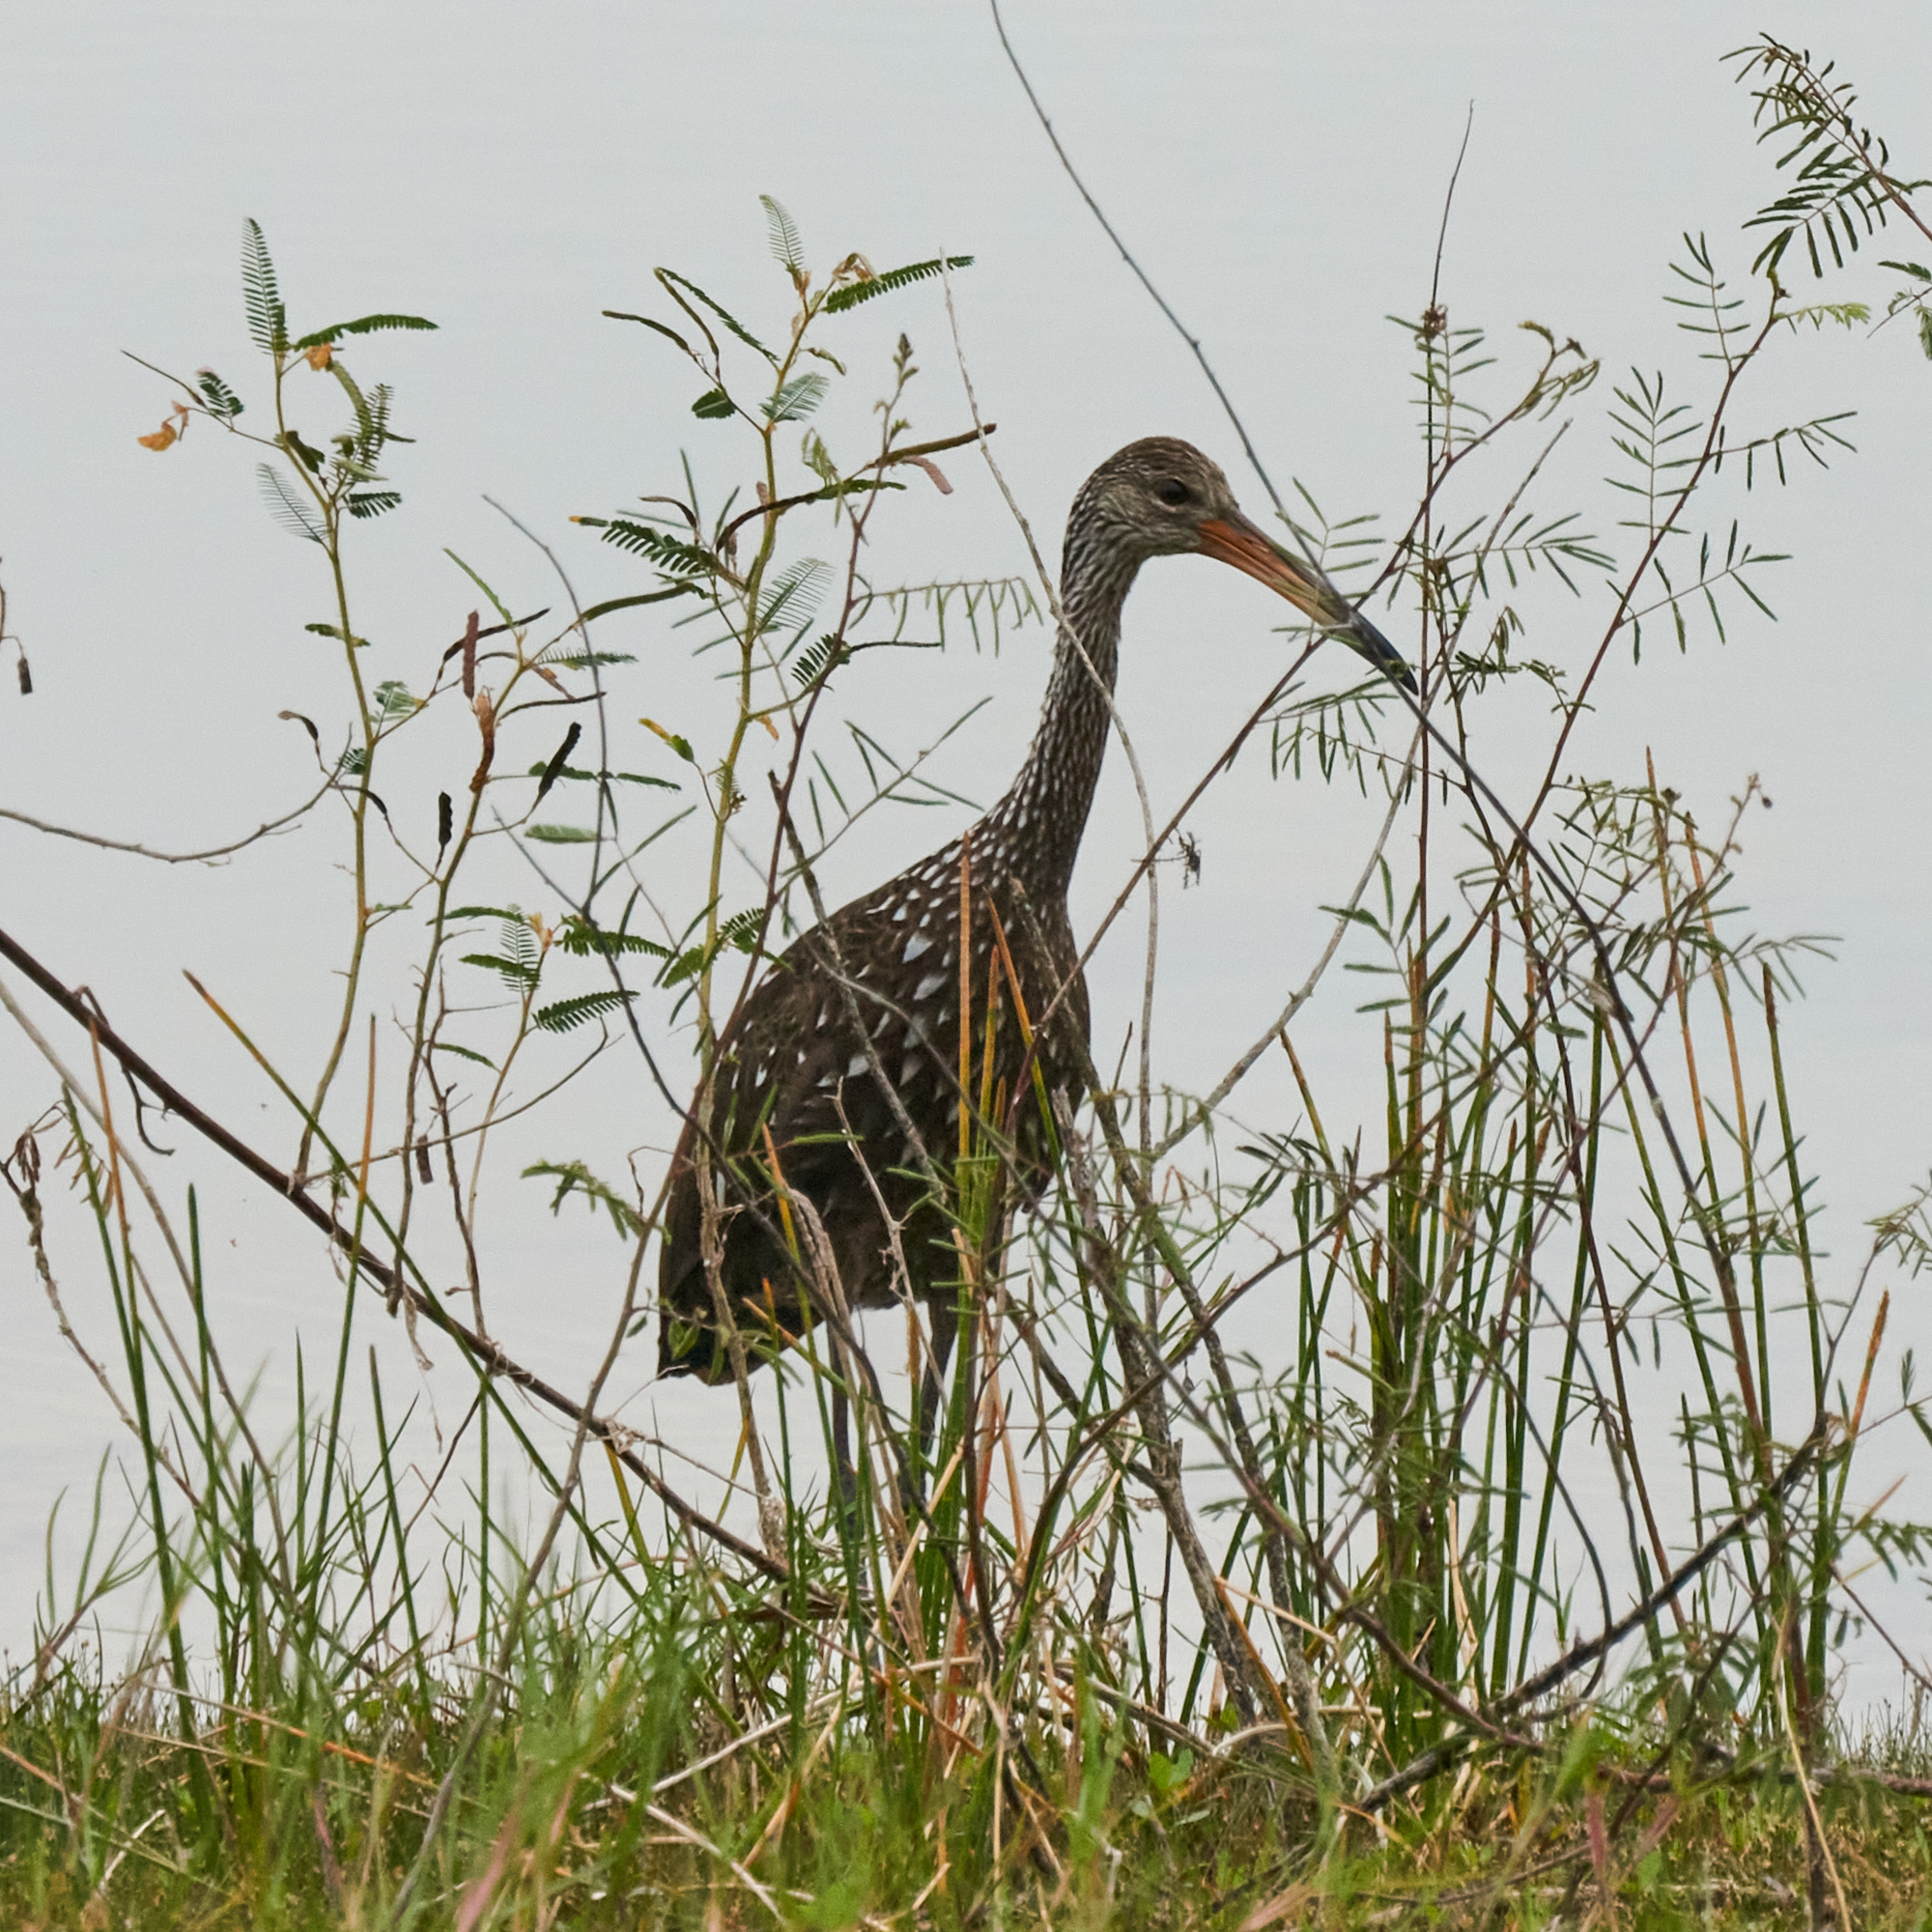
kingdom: Animalia
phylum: Chordata
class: Aves
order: Gruiformes
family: Aramidae
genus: Aramus
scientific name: Aramus guarauna
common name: Limpkin
